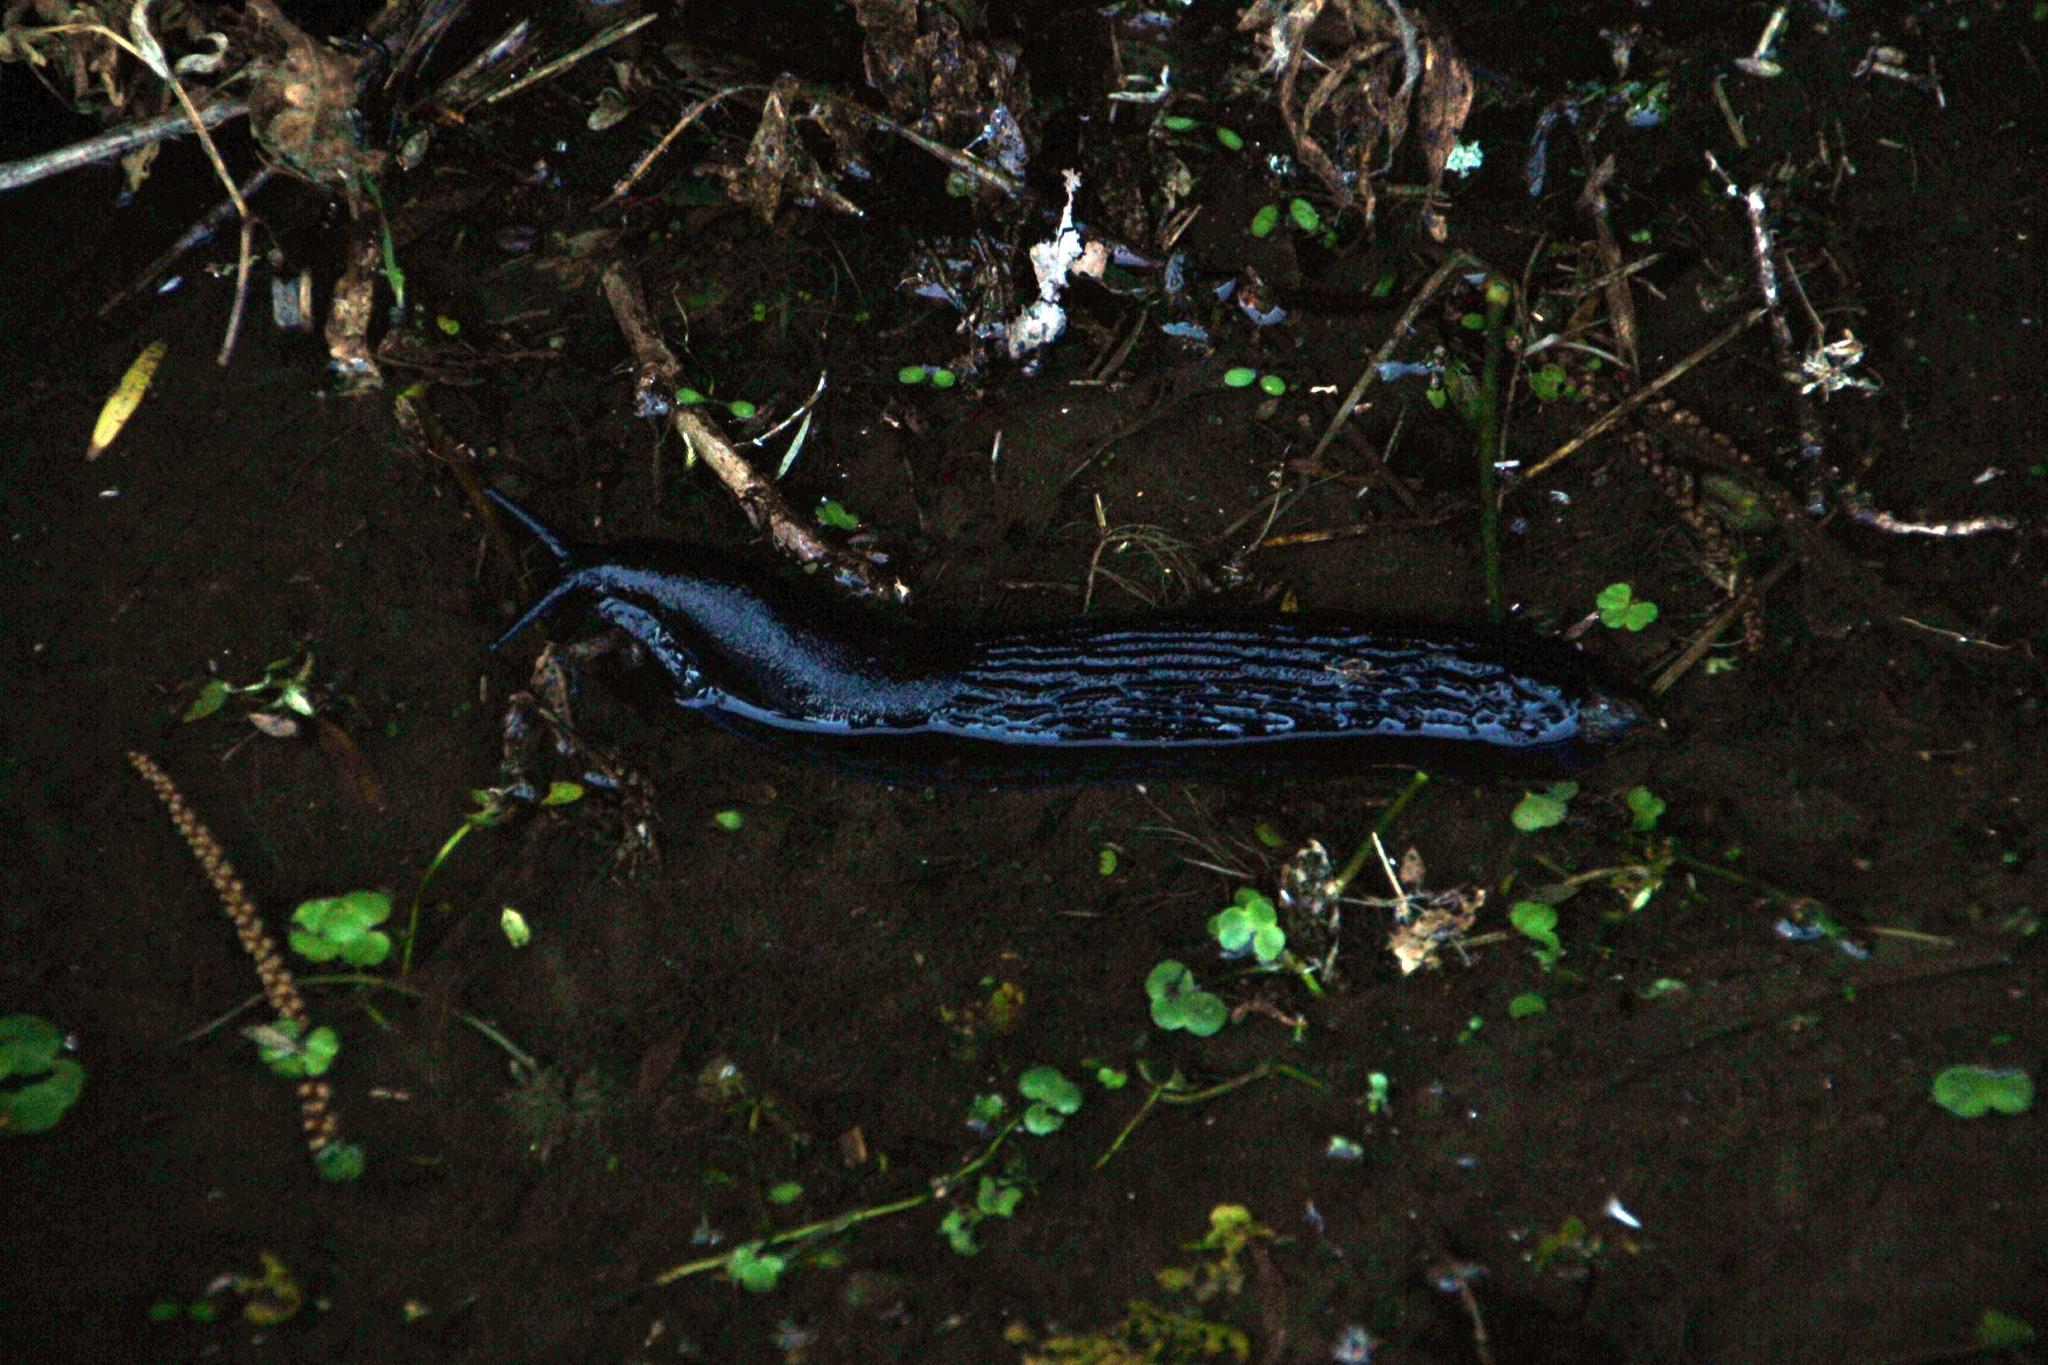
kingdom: Animalia
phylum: Mollusca
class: Gastropoda
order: Stylommatophora
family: Arionidae
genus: Arion
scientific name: Arion ater
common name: Black arion
